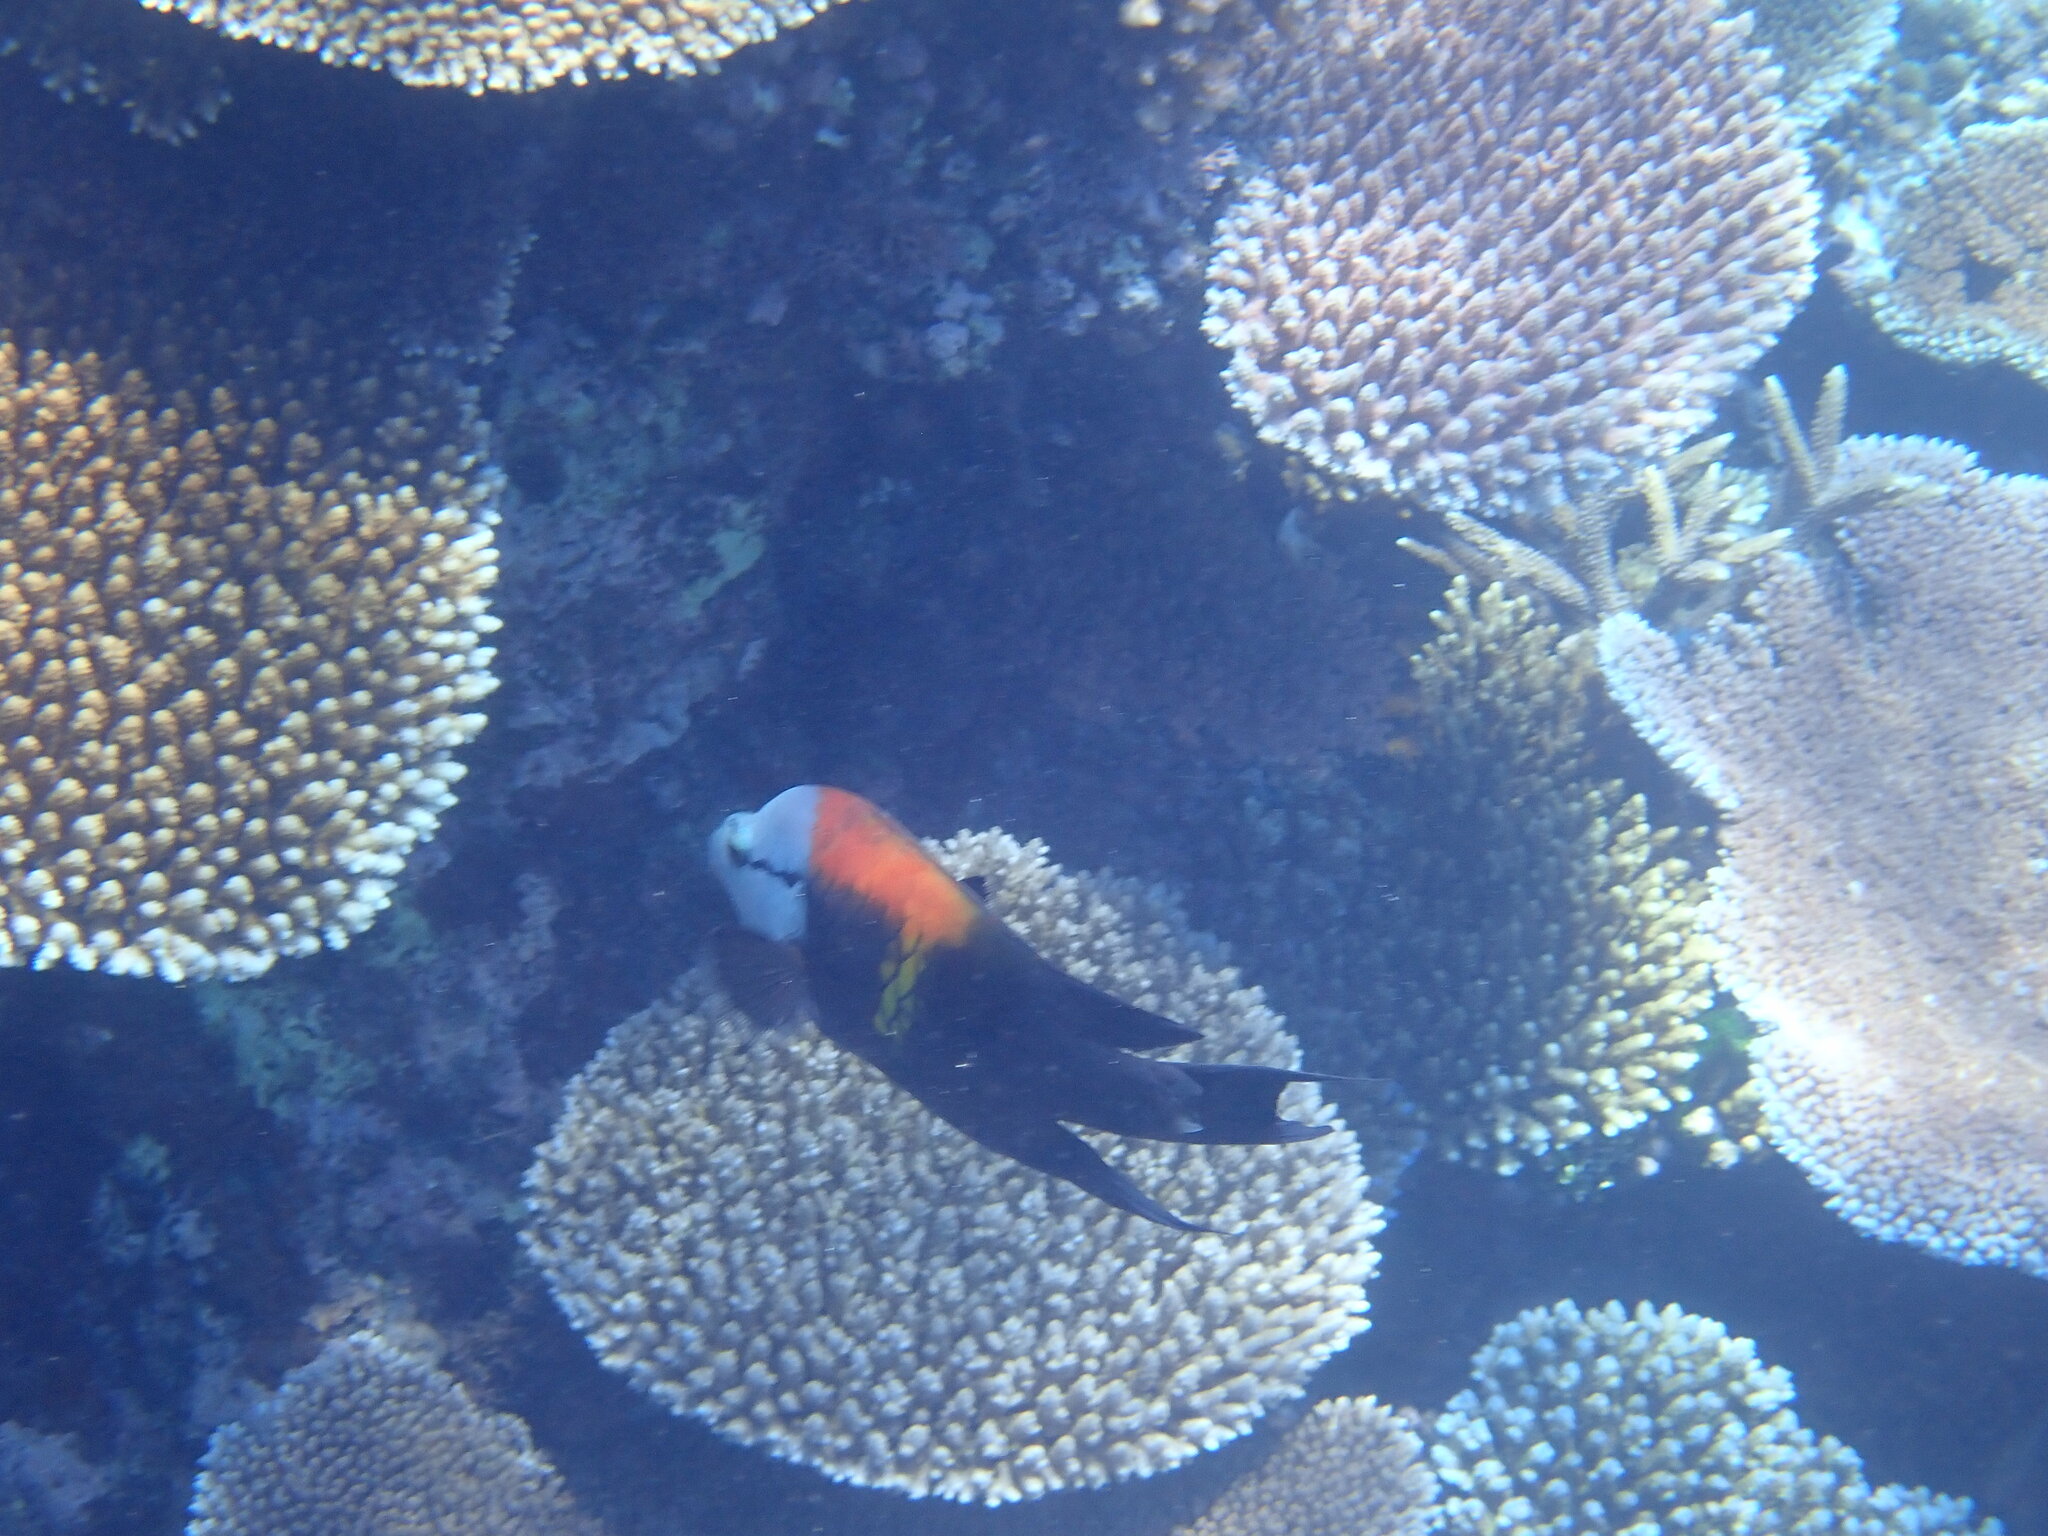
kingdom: Animalia
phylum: Chordata
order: Perciformes
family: Labridae
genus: Epibulus
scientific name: Epibulus insidiator
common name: Slingjaw wrasse
